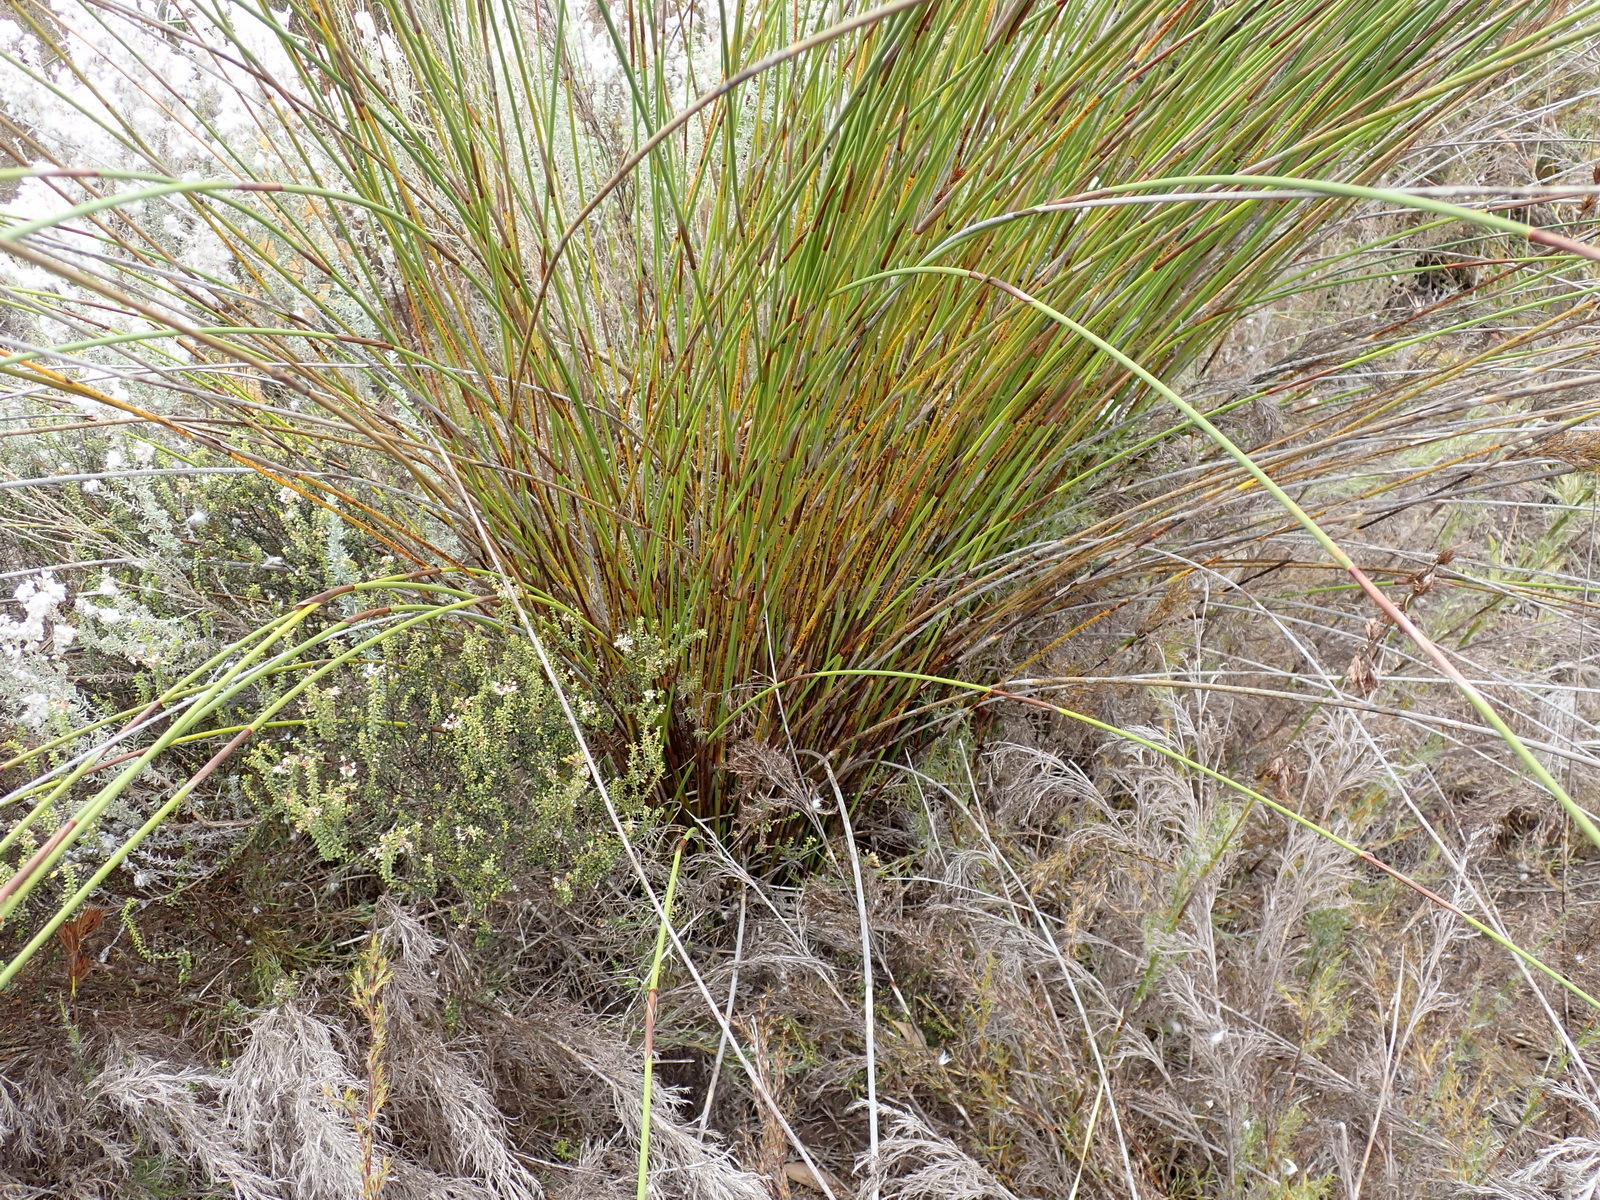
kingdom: Plantae
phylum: Tracheophyta
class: Liliopsida
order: Poales
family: Restionaceae
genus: Thamnochortus
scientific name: Thamnochortus insignis
